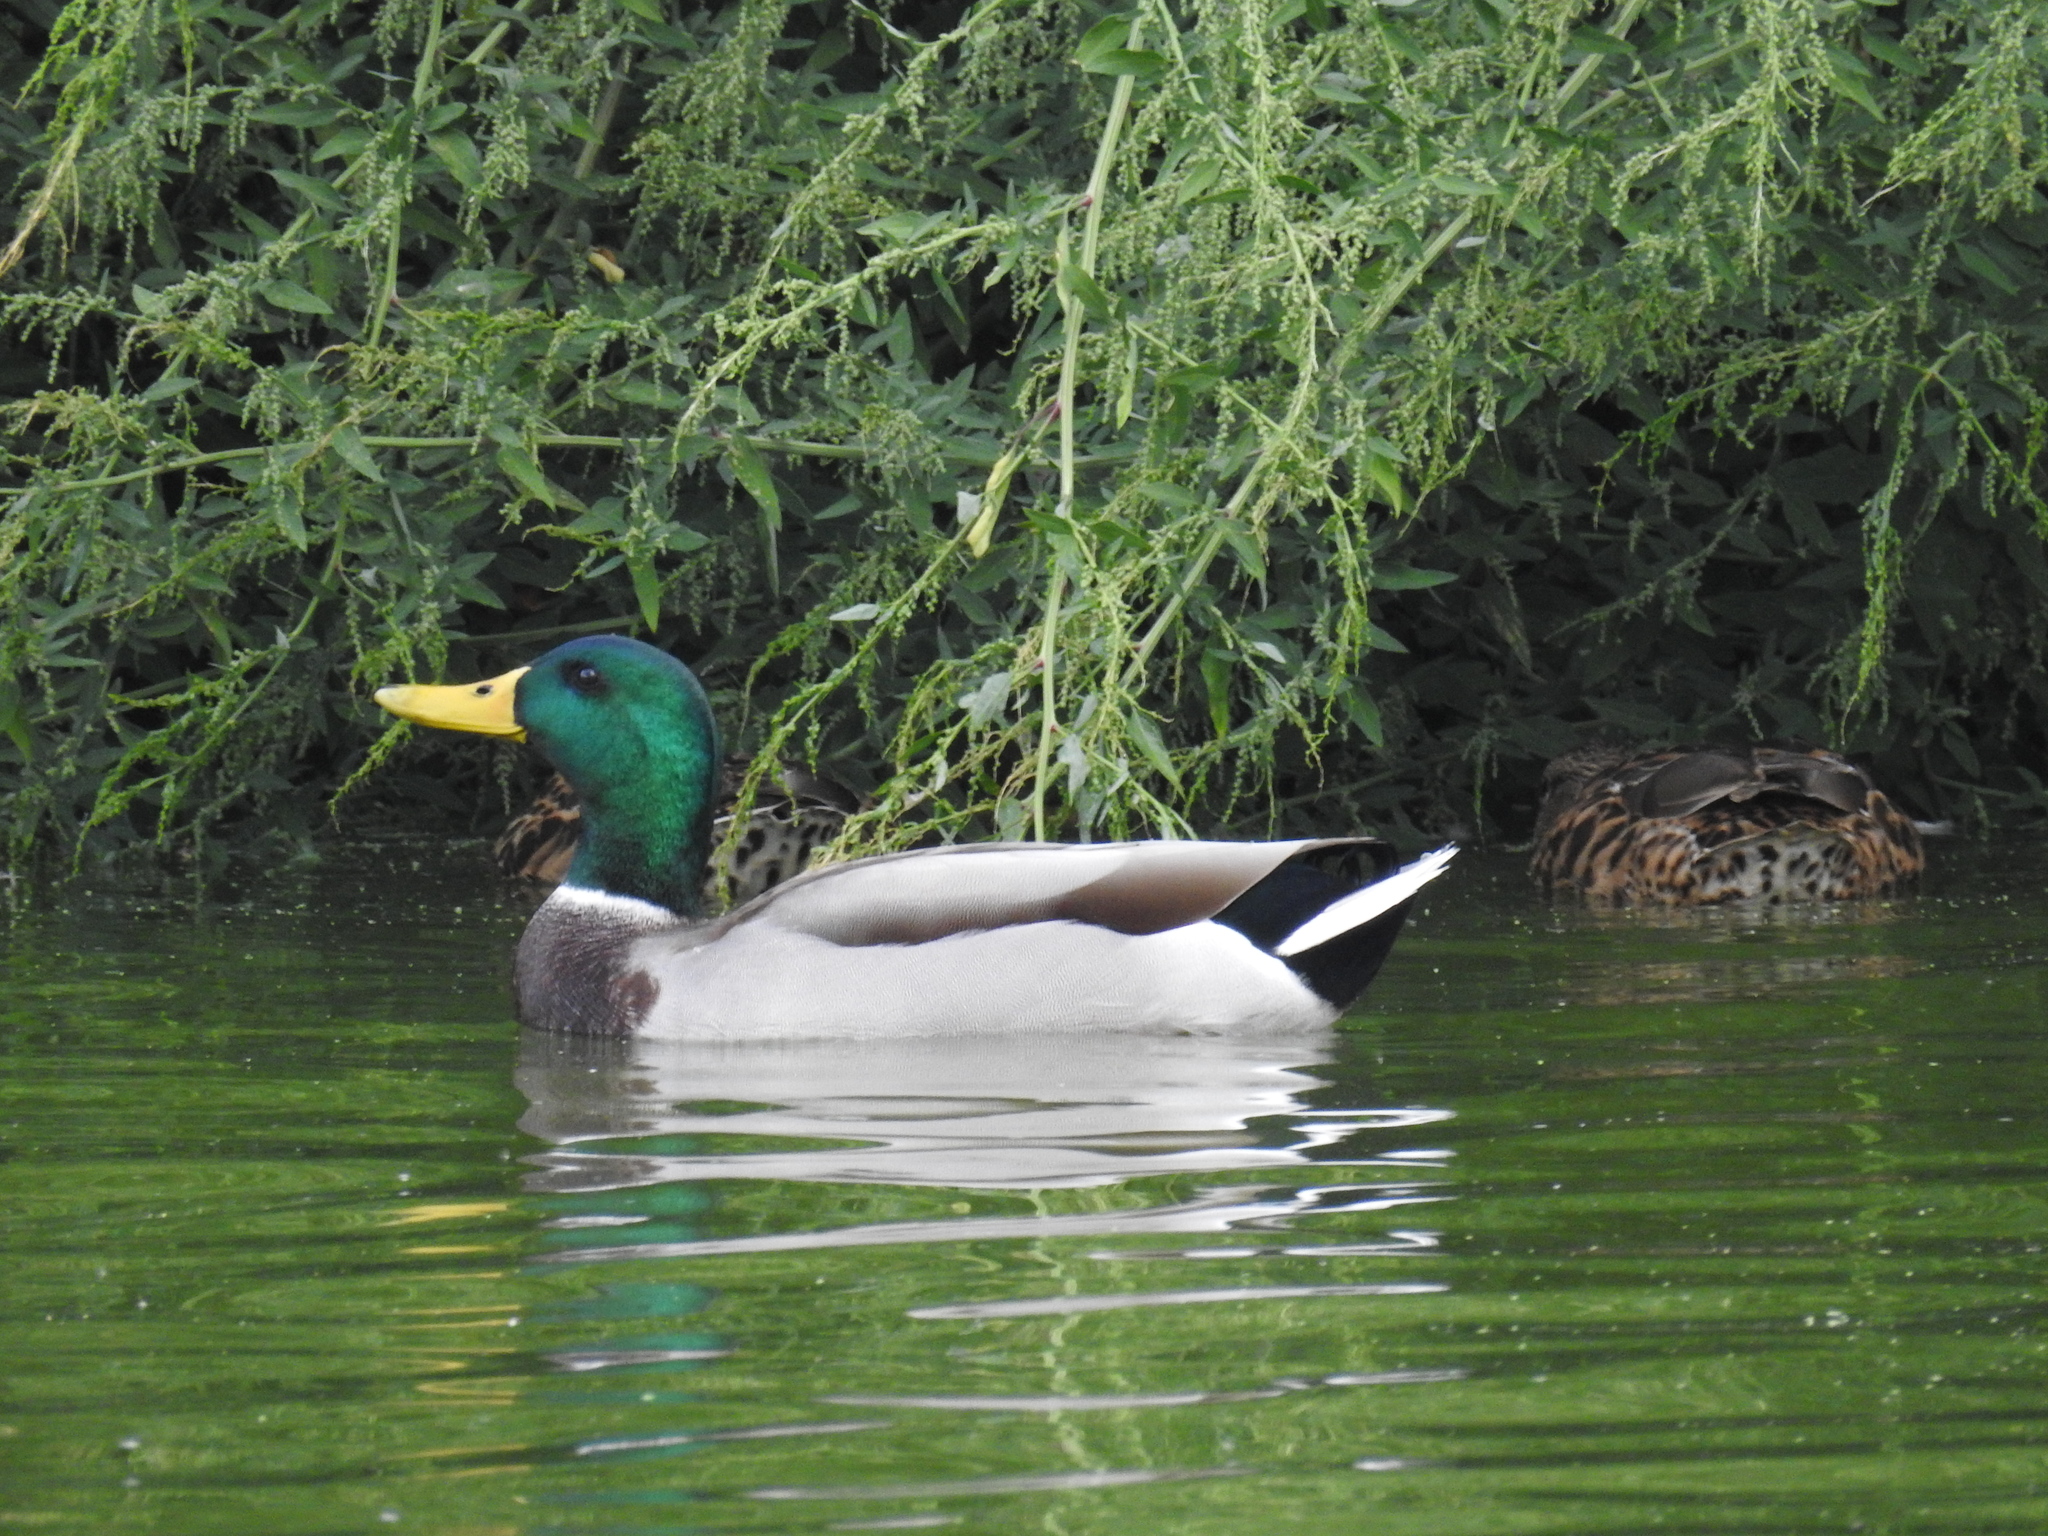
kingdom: Animalia
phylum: Chordata
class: Aves
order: Anseriformes
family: Anatidae
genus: Anas
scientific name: Anas platyrhynchos
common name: Mallard
